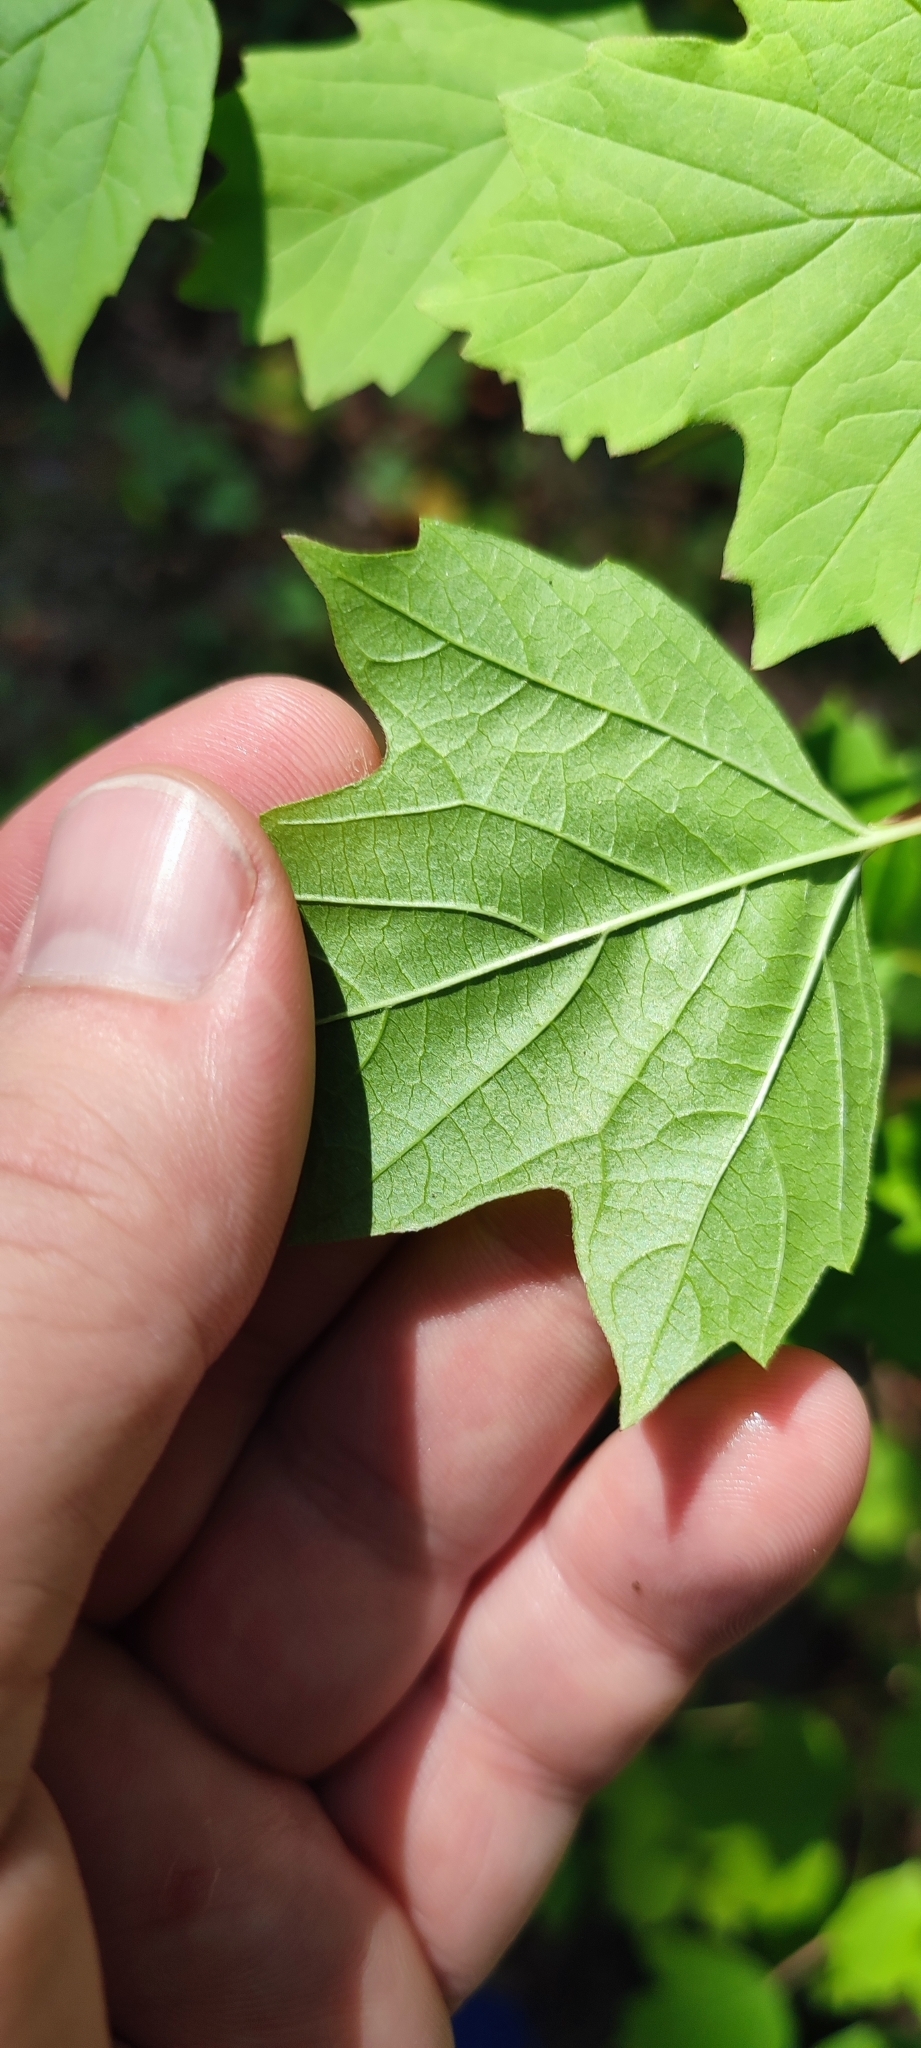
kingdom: Plantae
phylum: Tracheophyta
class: Magnoliopsida
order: Dipsacales
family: Viburnaceae
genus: Viburnum
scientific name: Viburnum opulus
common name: Guelder-rose
